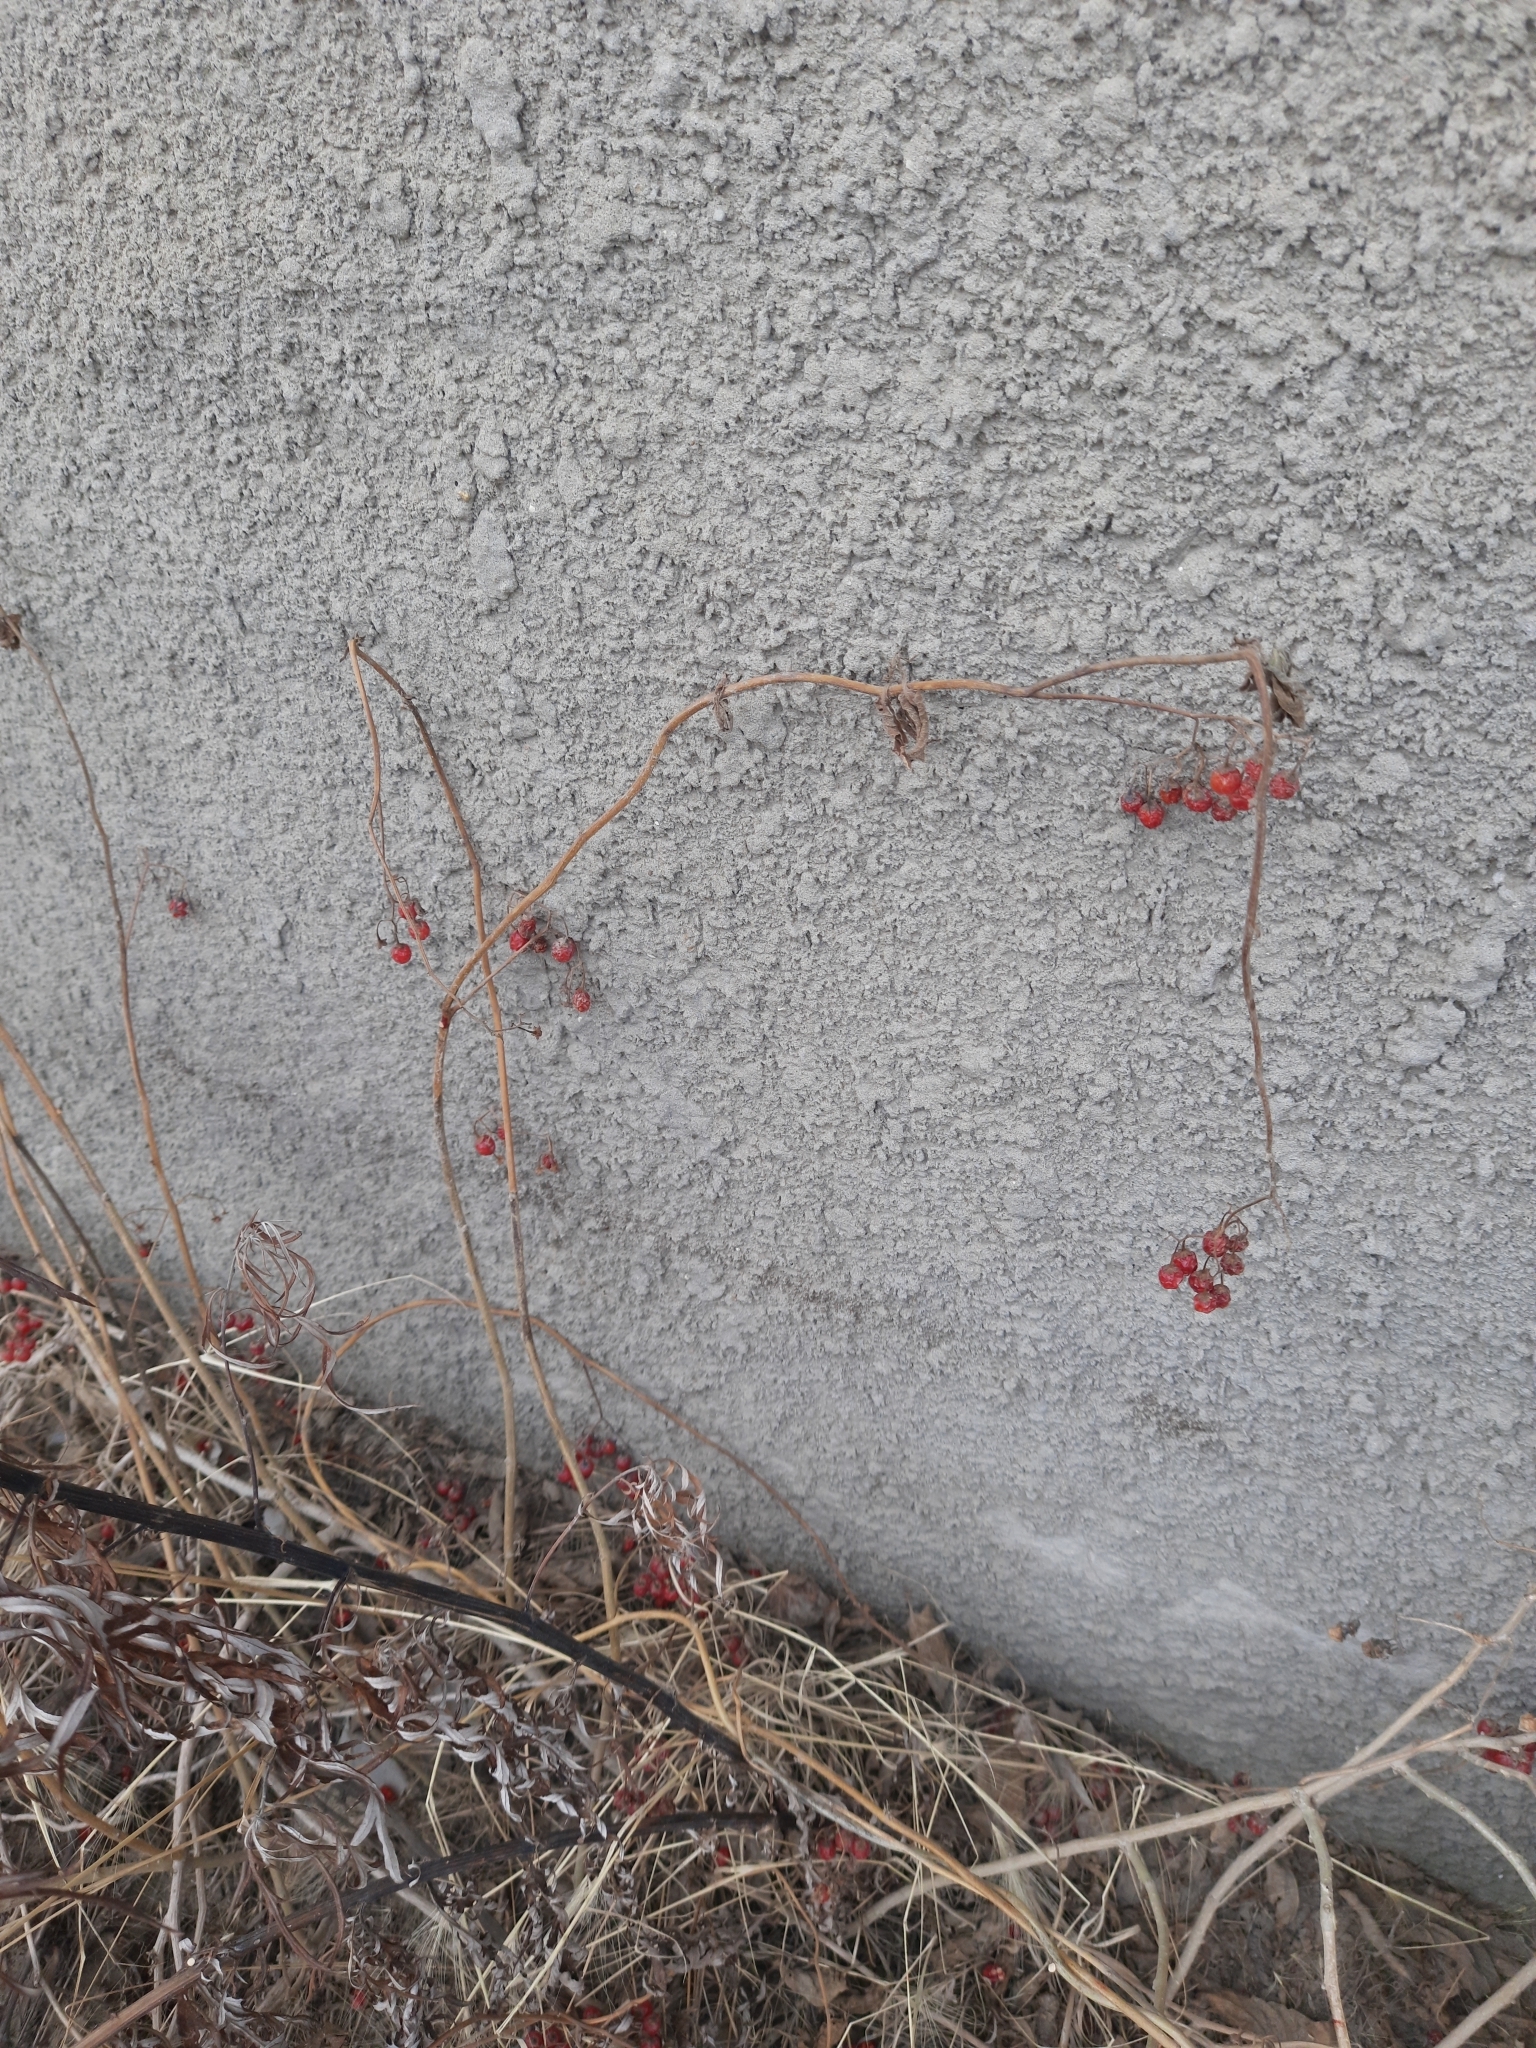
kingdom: Plantae
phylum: Tracheophyta
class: Magnoliopsida
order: Solanales
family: Solanaceae
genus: Solanum
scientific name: Solanum dulcamara
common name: Climbing nightshade
